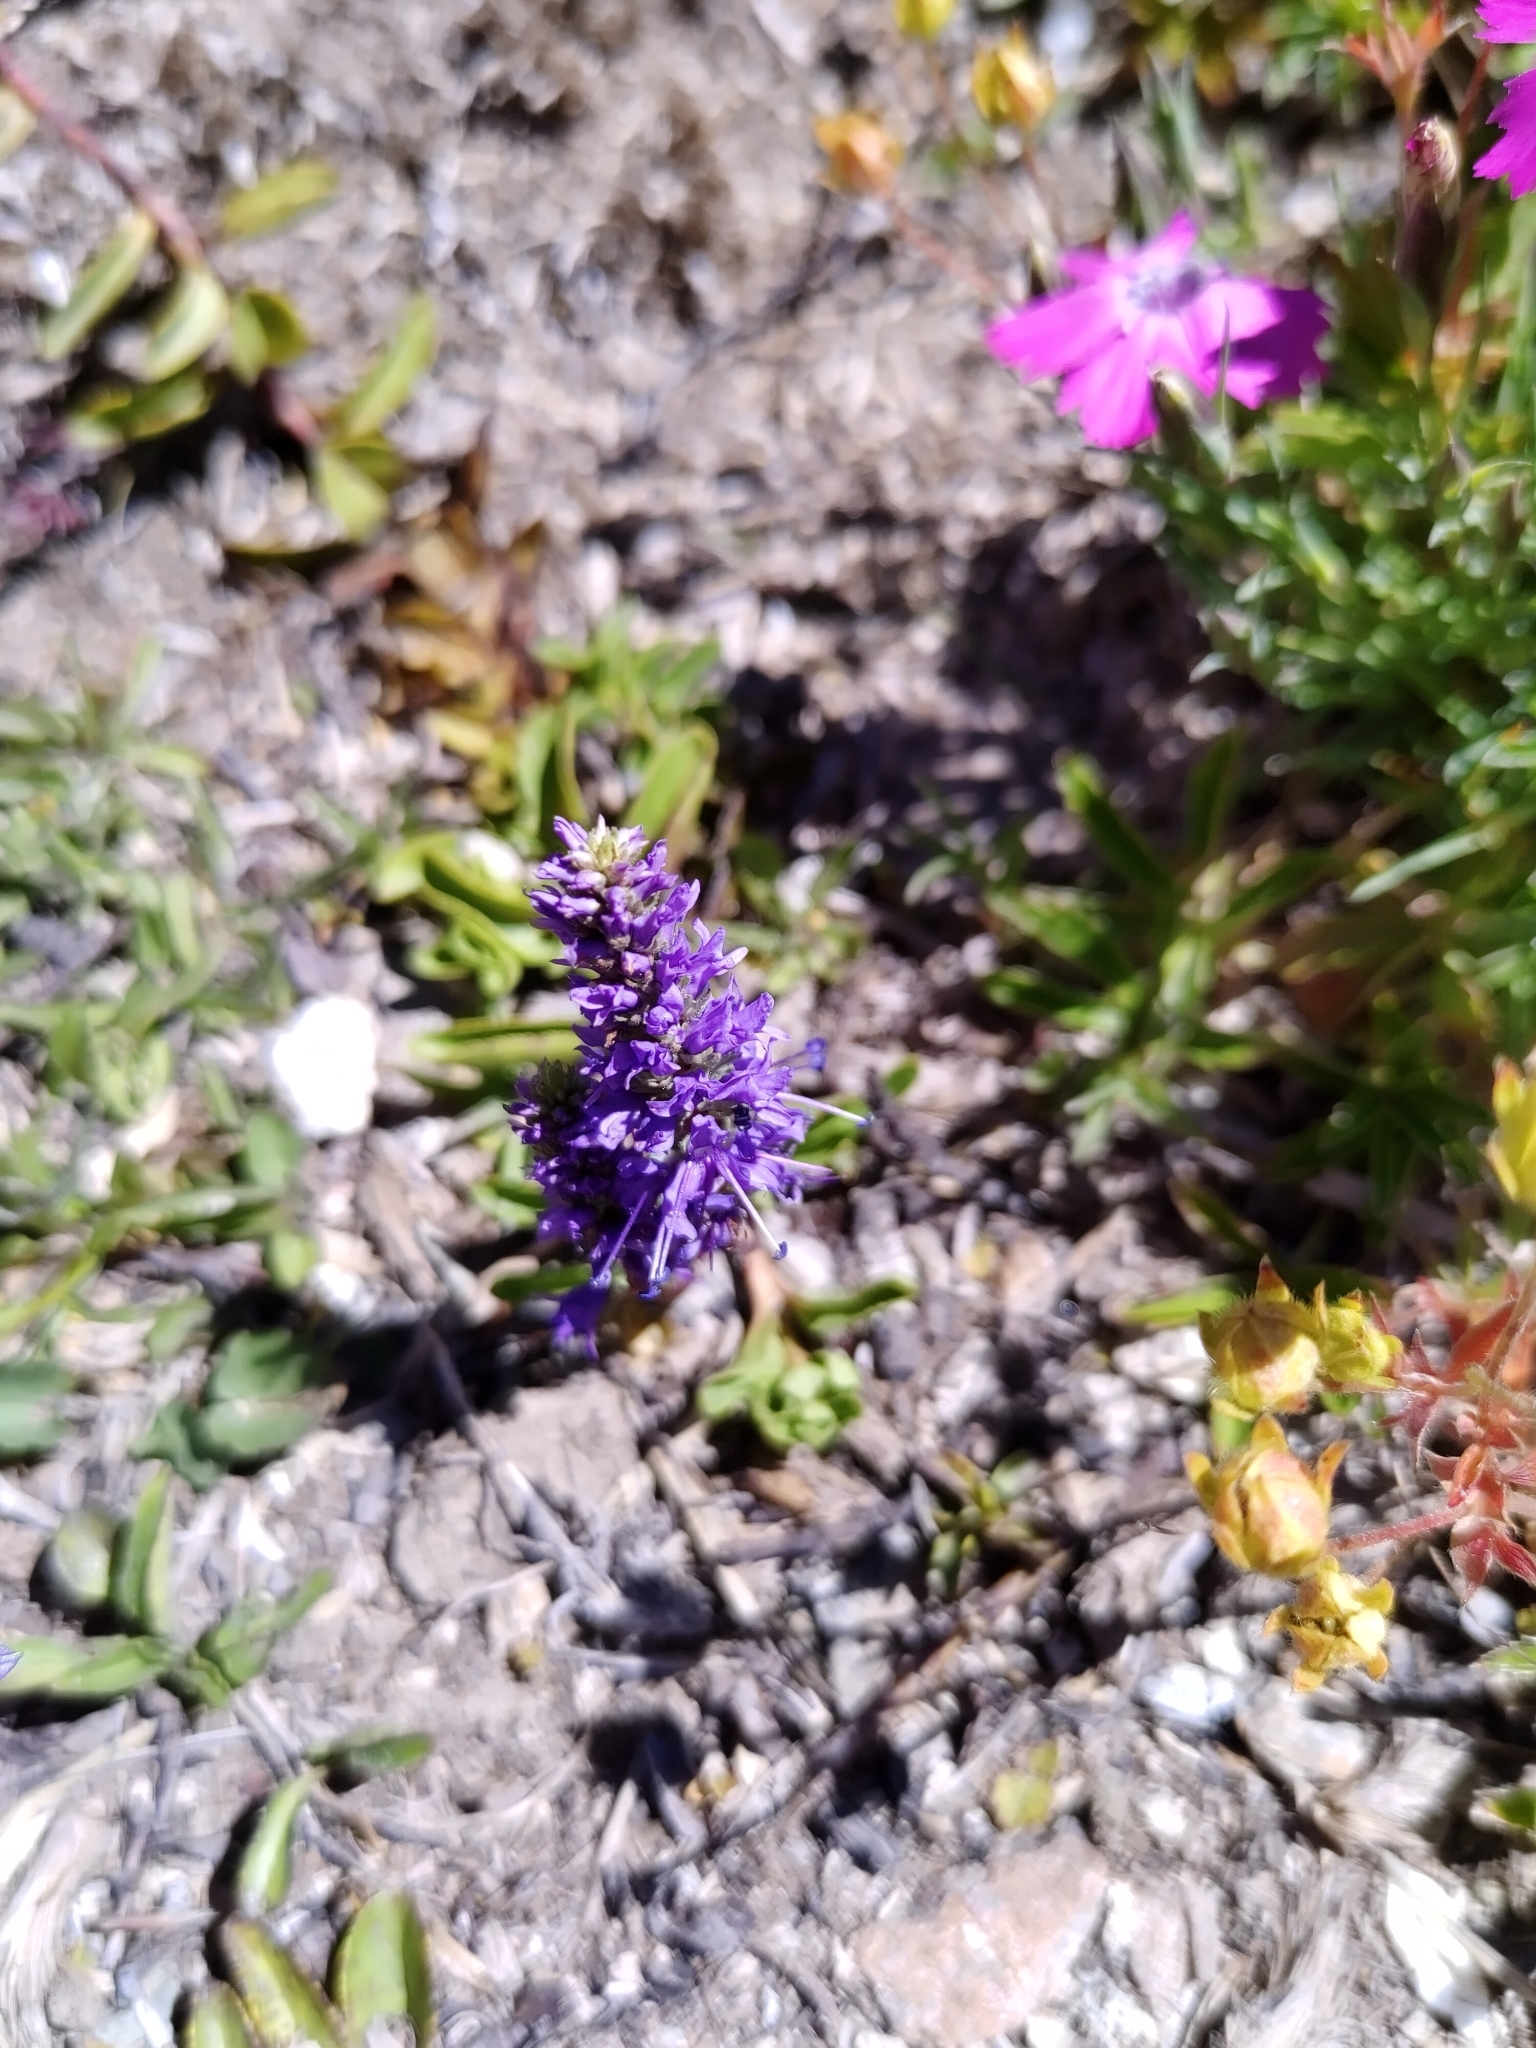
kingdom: Plantae
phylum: Tracheophyta
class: Magnoliopsida
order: Lamiales
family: Plantaginaceae
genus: Veronica
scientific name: Veronica allionii
